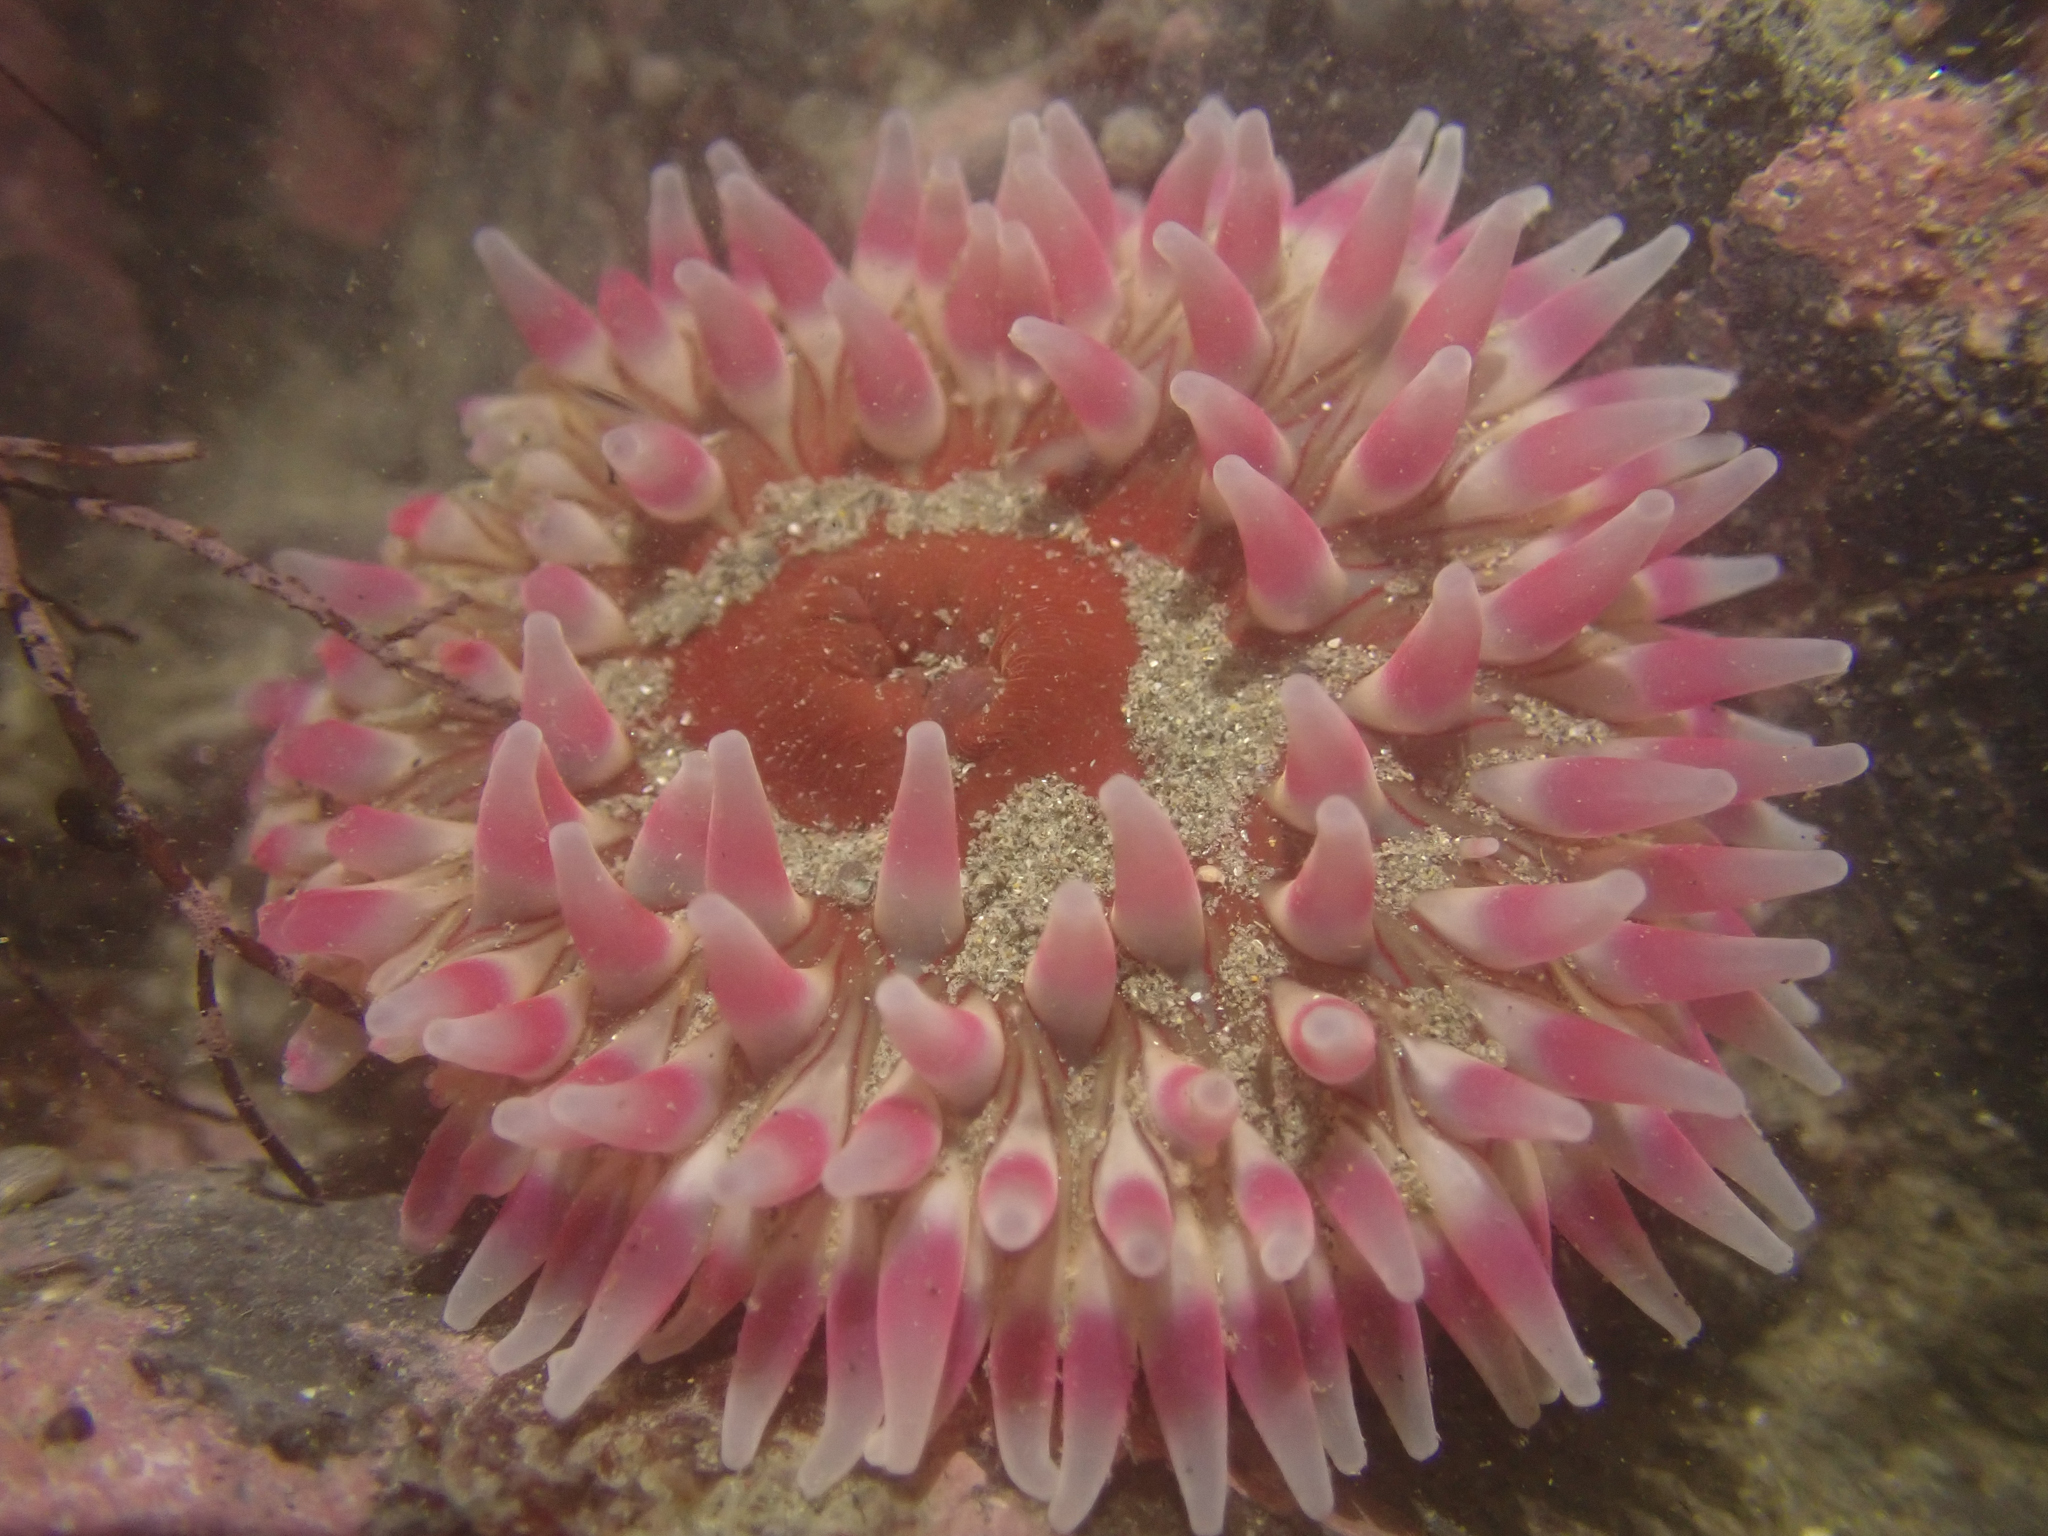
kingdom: Animalia
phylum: Cnidaria
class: Anthozoa
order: Actiniaria
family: Actiniidae
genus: Urticina
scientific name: Urticina clandestina
